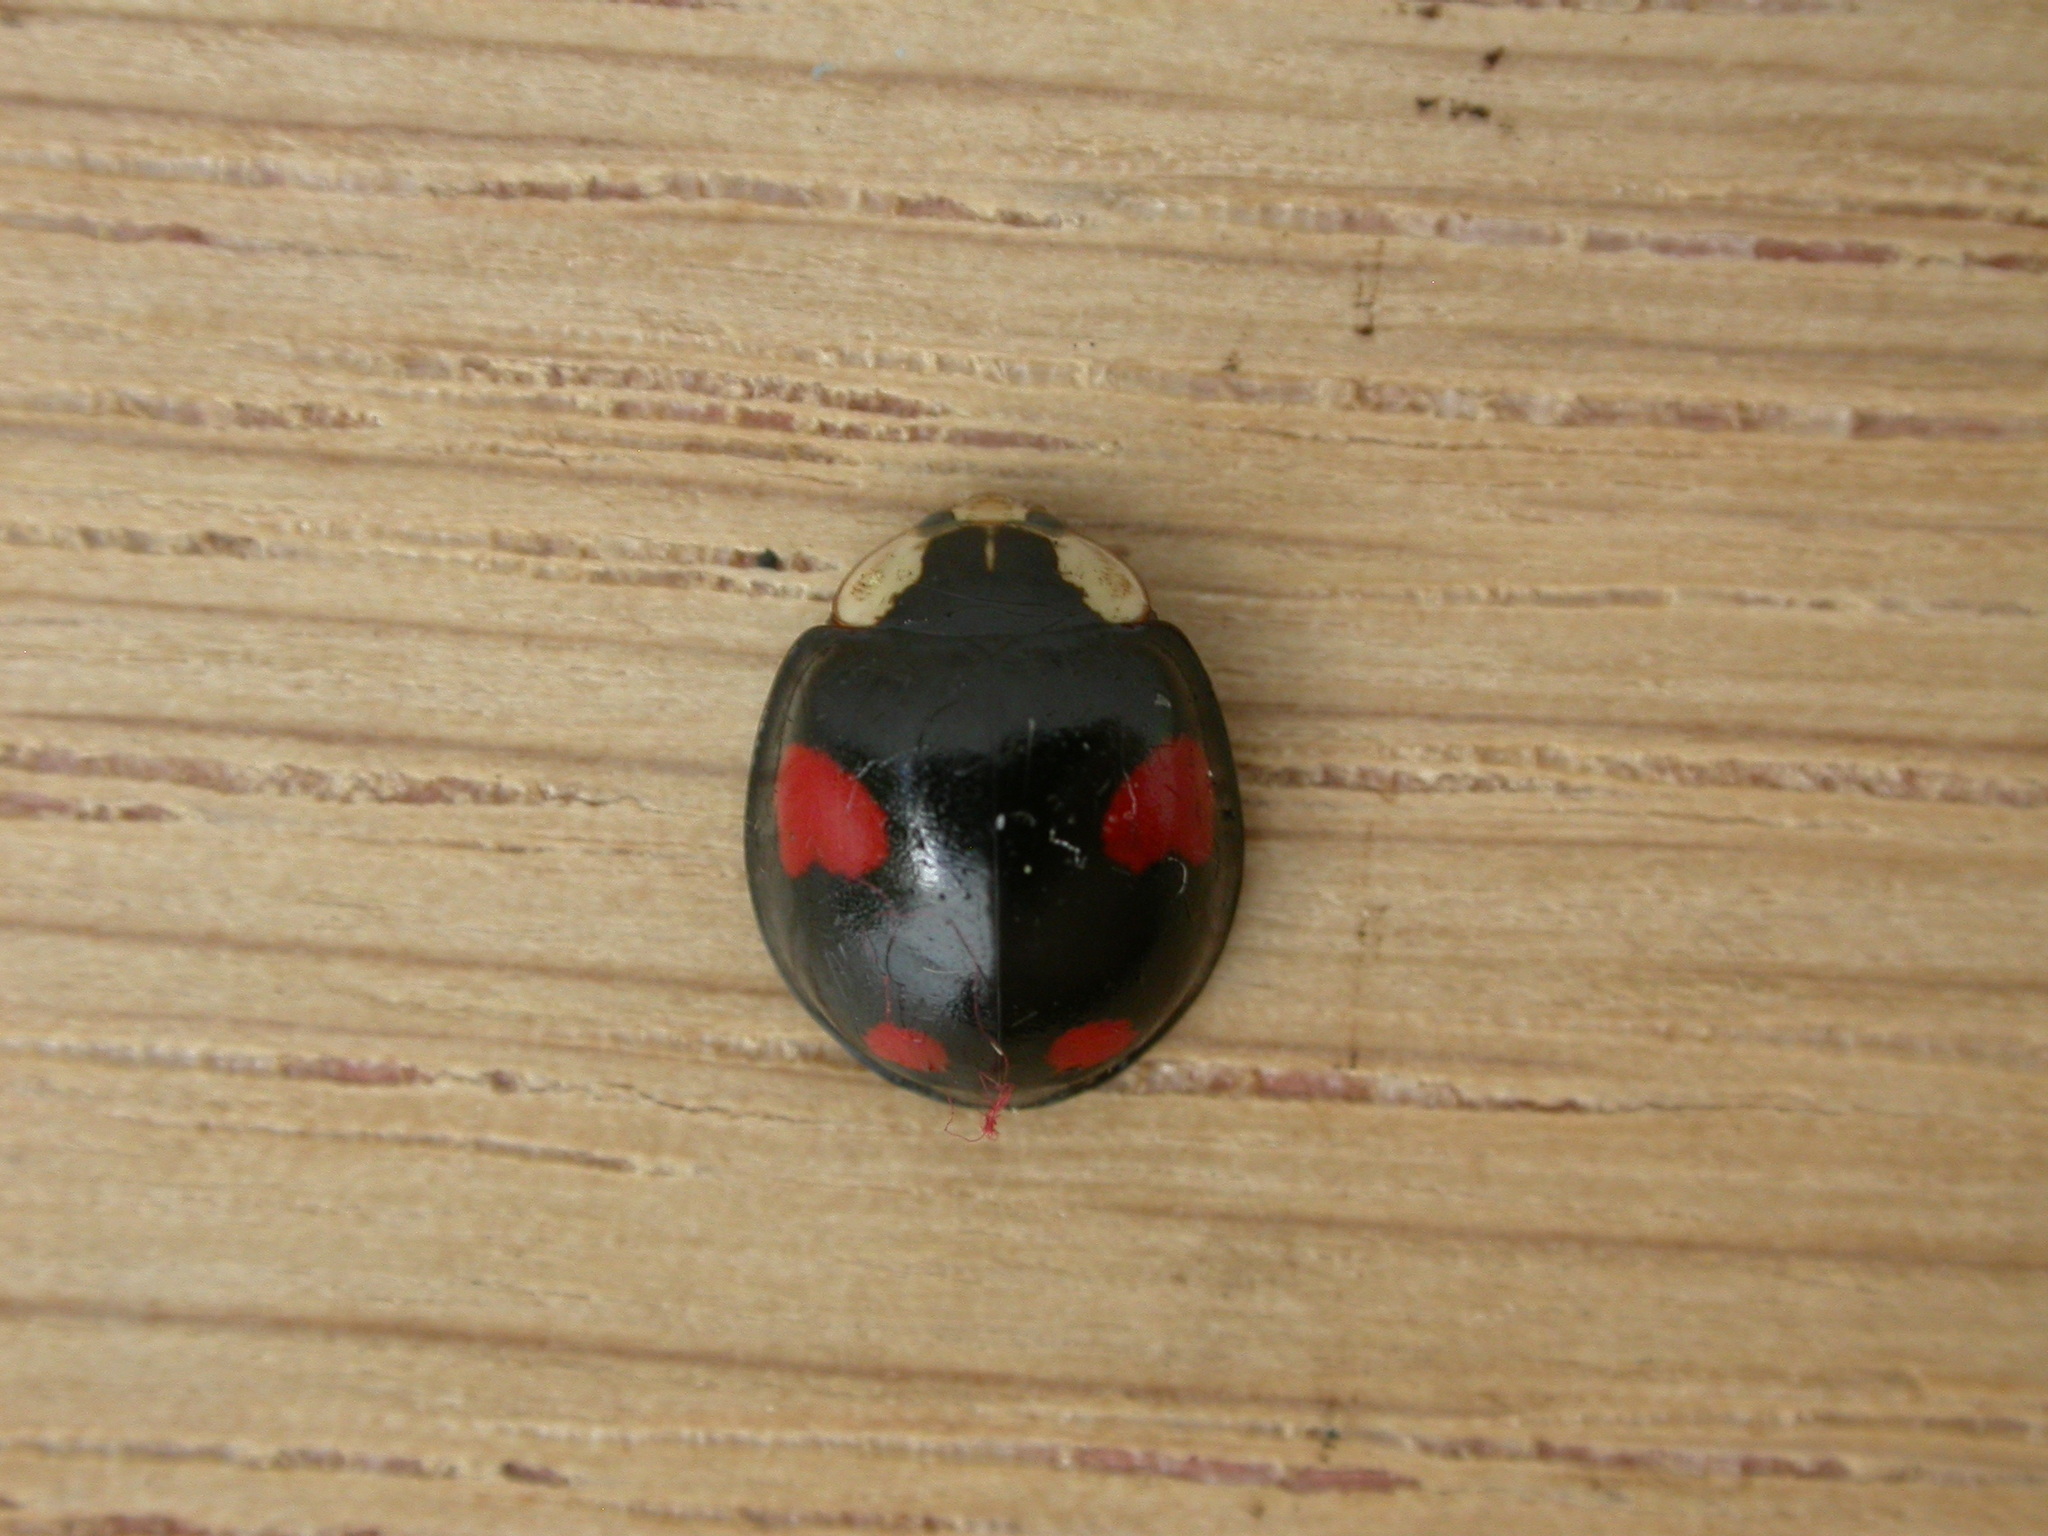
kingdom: Animalia
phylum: Arthropoda
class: Insecta
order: Coleoptera
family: Coccinellidae
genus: Harmonia
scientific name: Harmonia axyridis
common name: Harlequin ladybird
